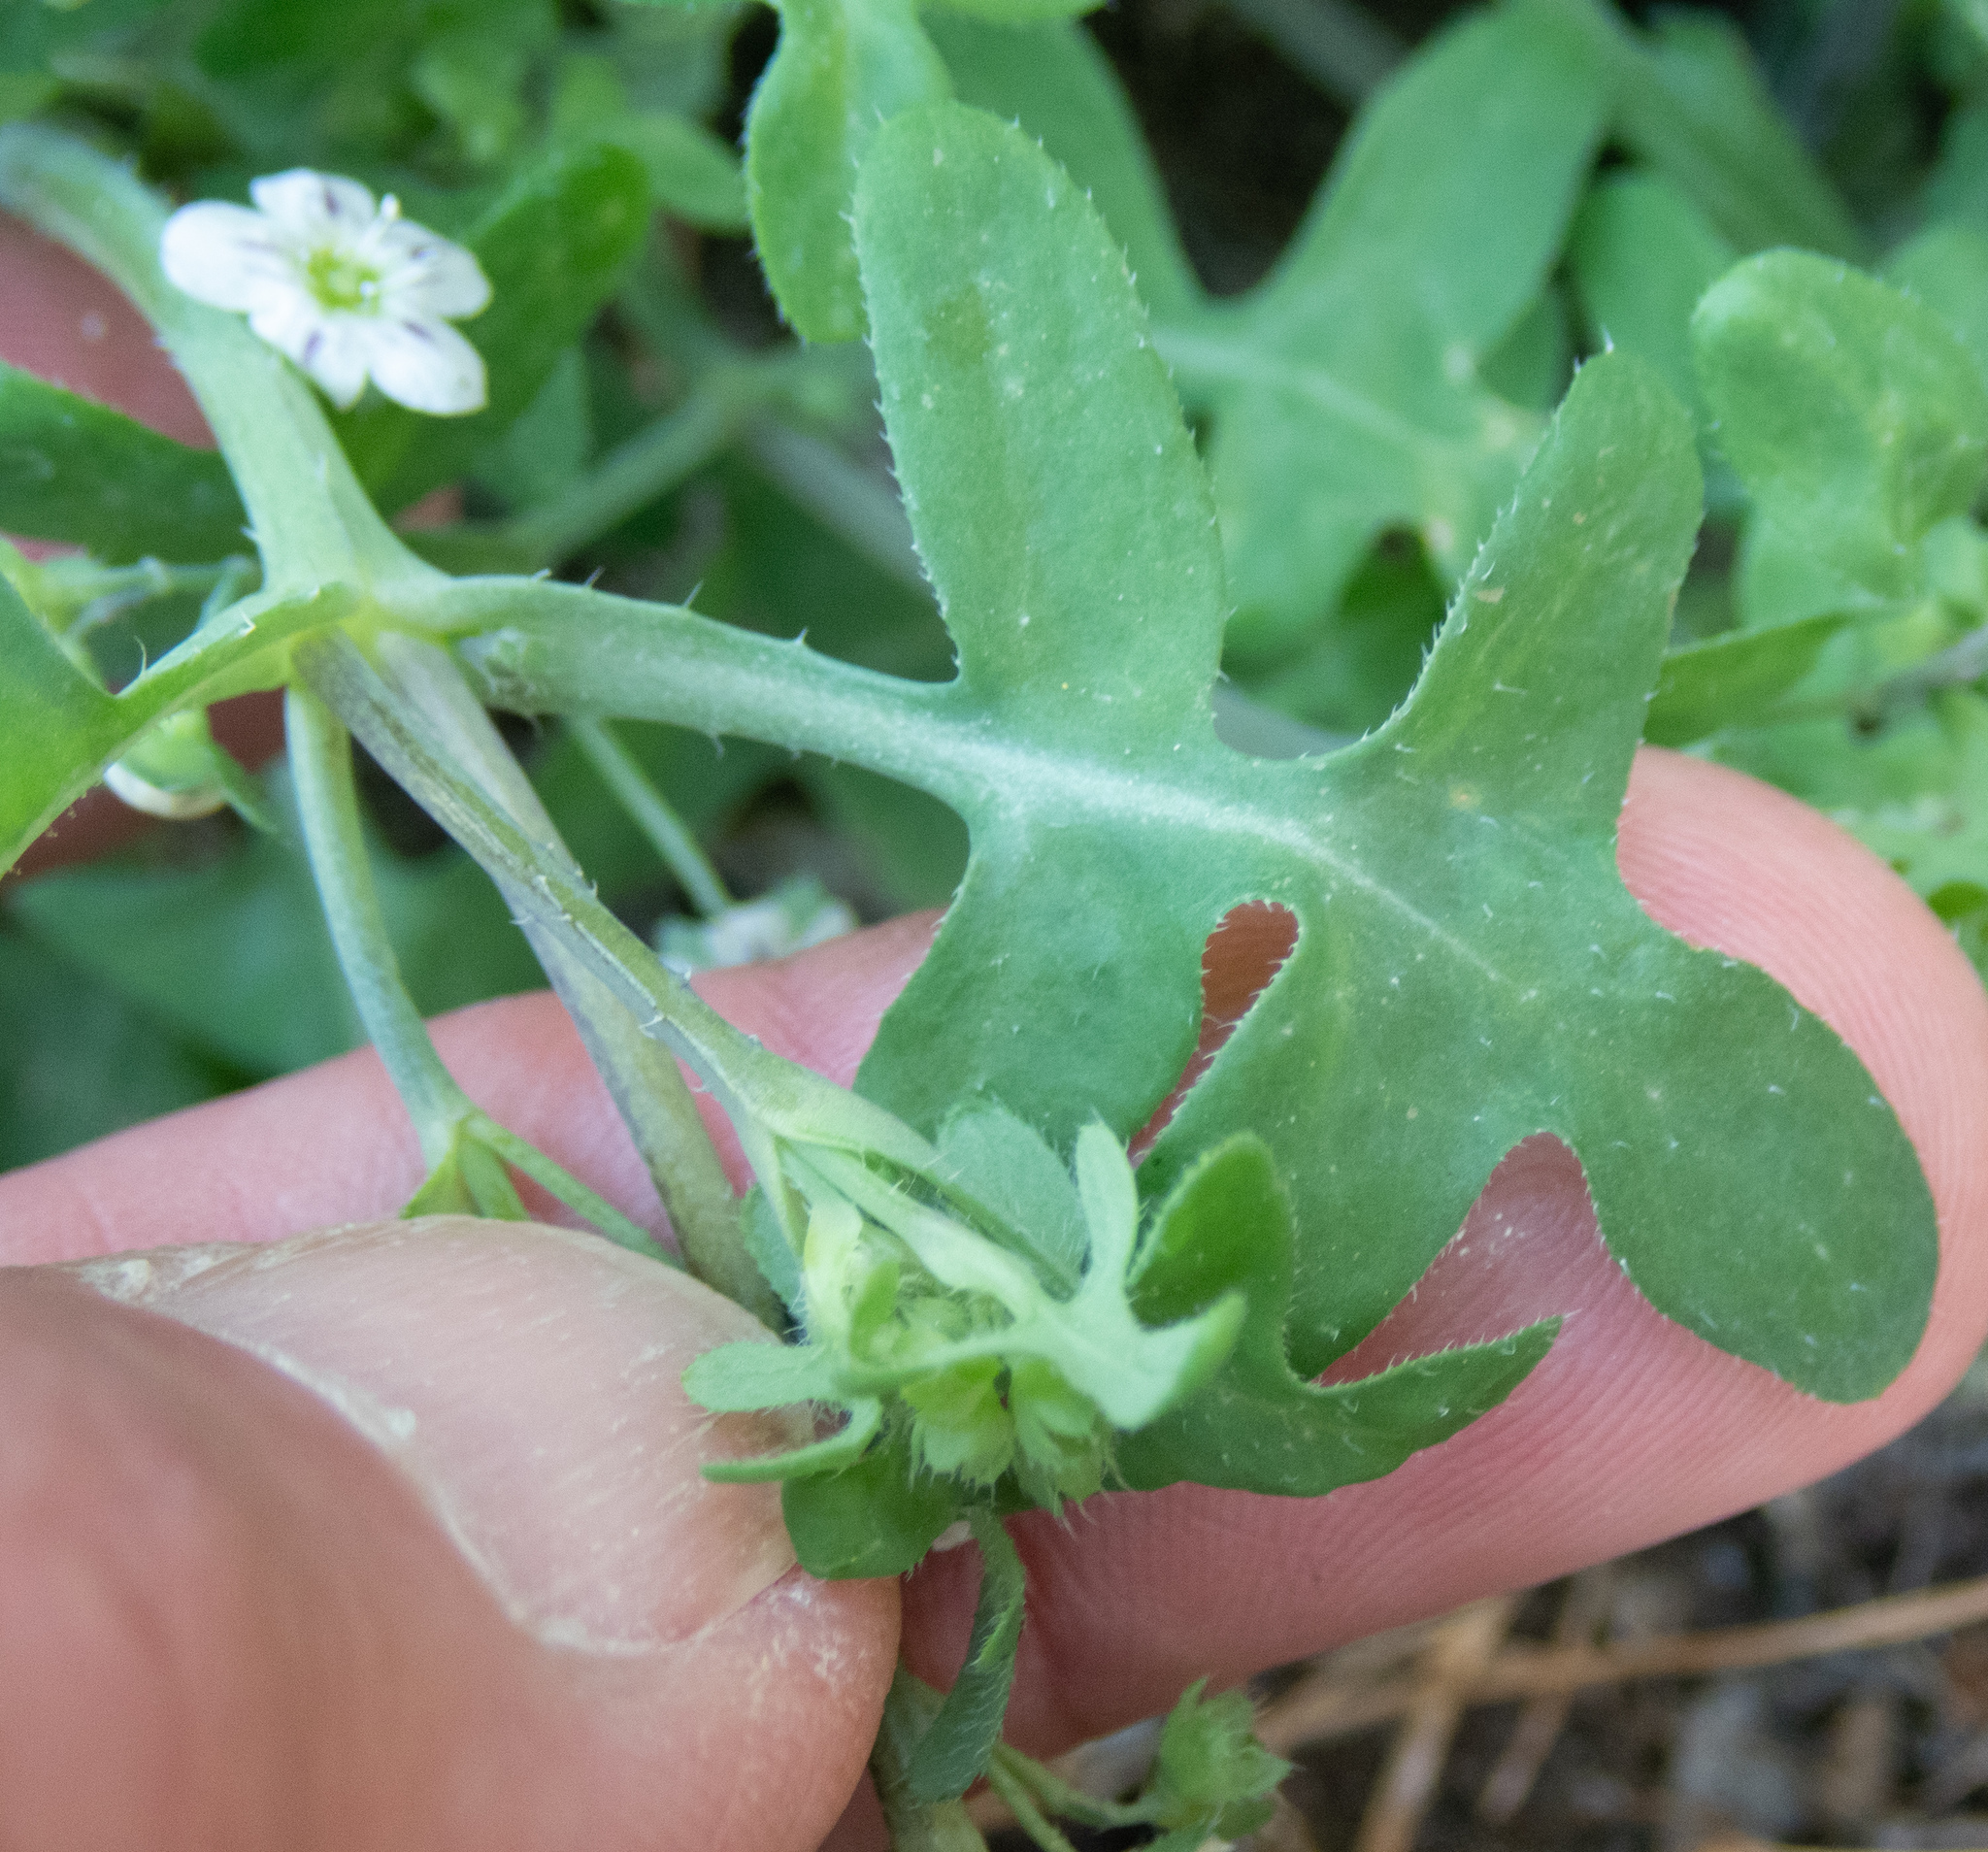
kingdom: Plantae
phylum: Tracheophyta
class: Magnoliopsida
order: Boraginales
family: Hydrophyllaceae
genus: Pholistoma
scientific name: Pholistoma membranaceum
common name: White fiesta-flower
